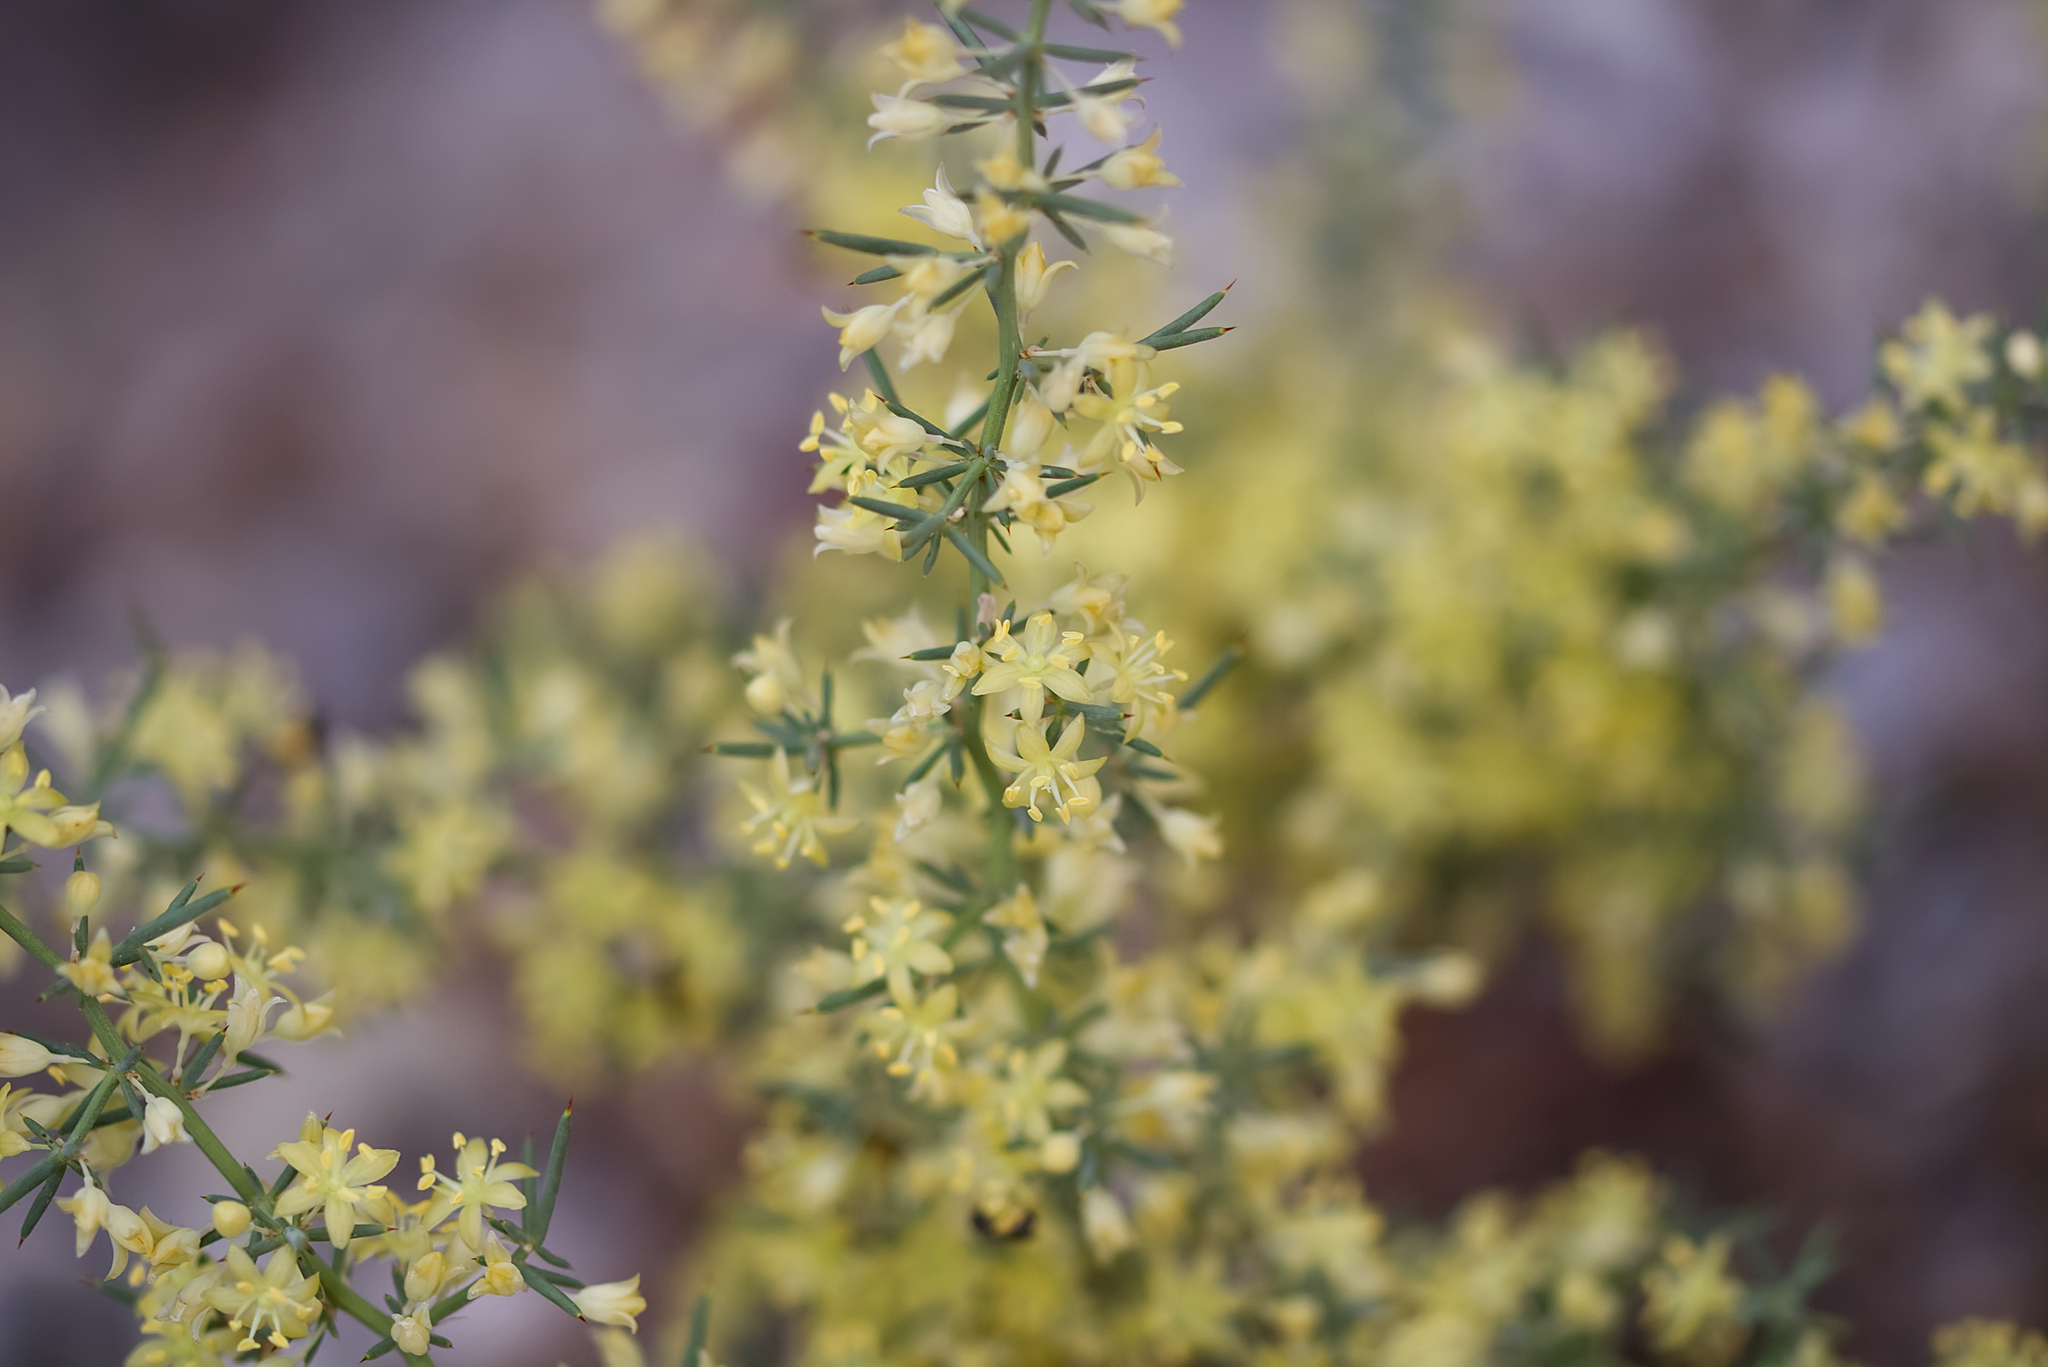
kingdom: Plantae
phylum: Tracheophyta
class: Liliopsida
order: Asparagales
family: Asparagaceae
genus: Asparagus
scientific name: Asparagus aphyllus
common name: Mediterranean asparagus
